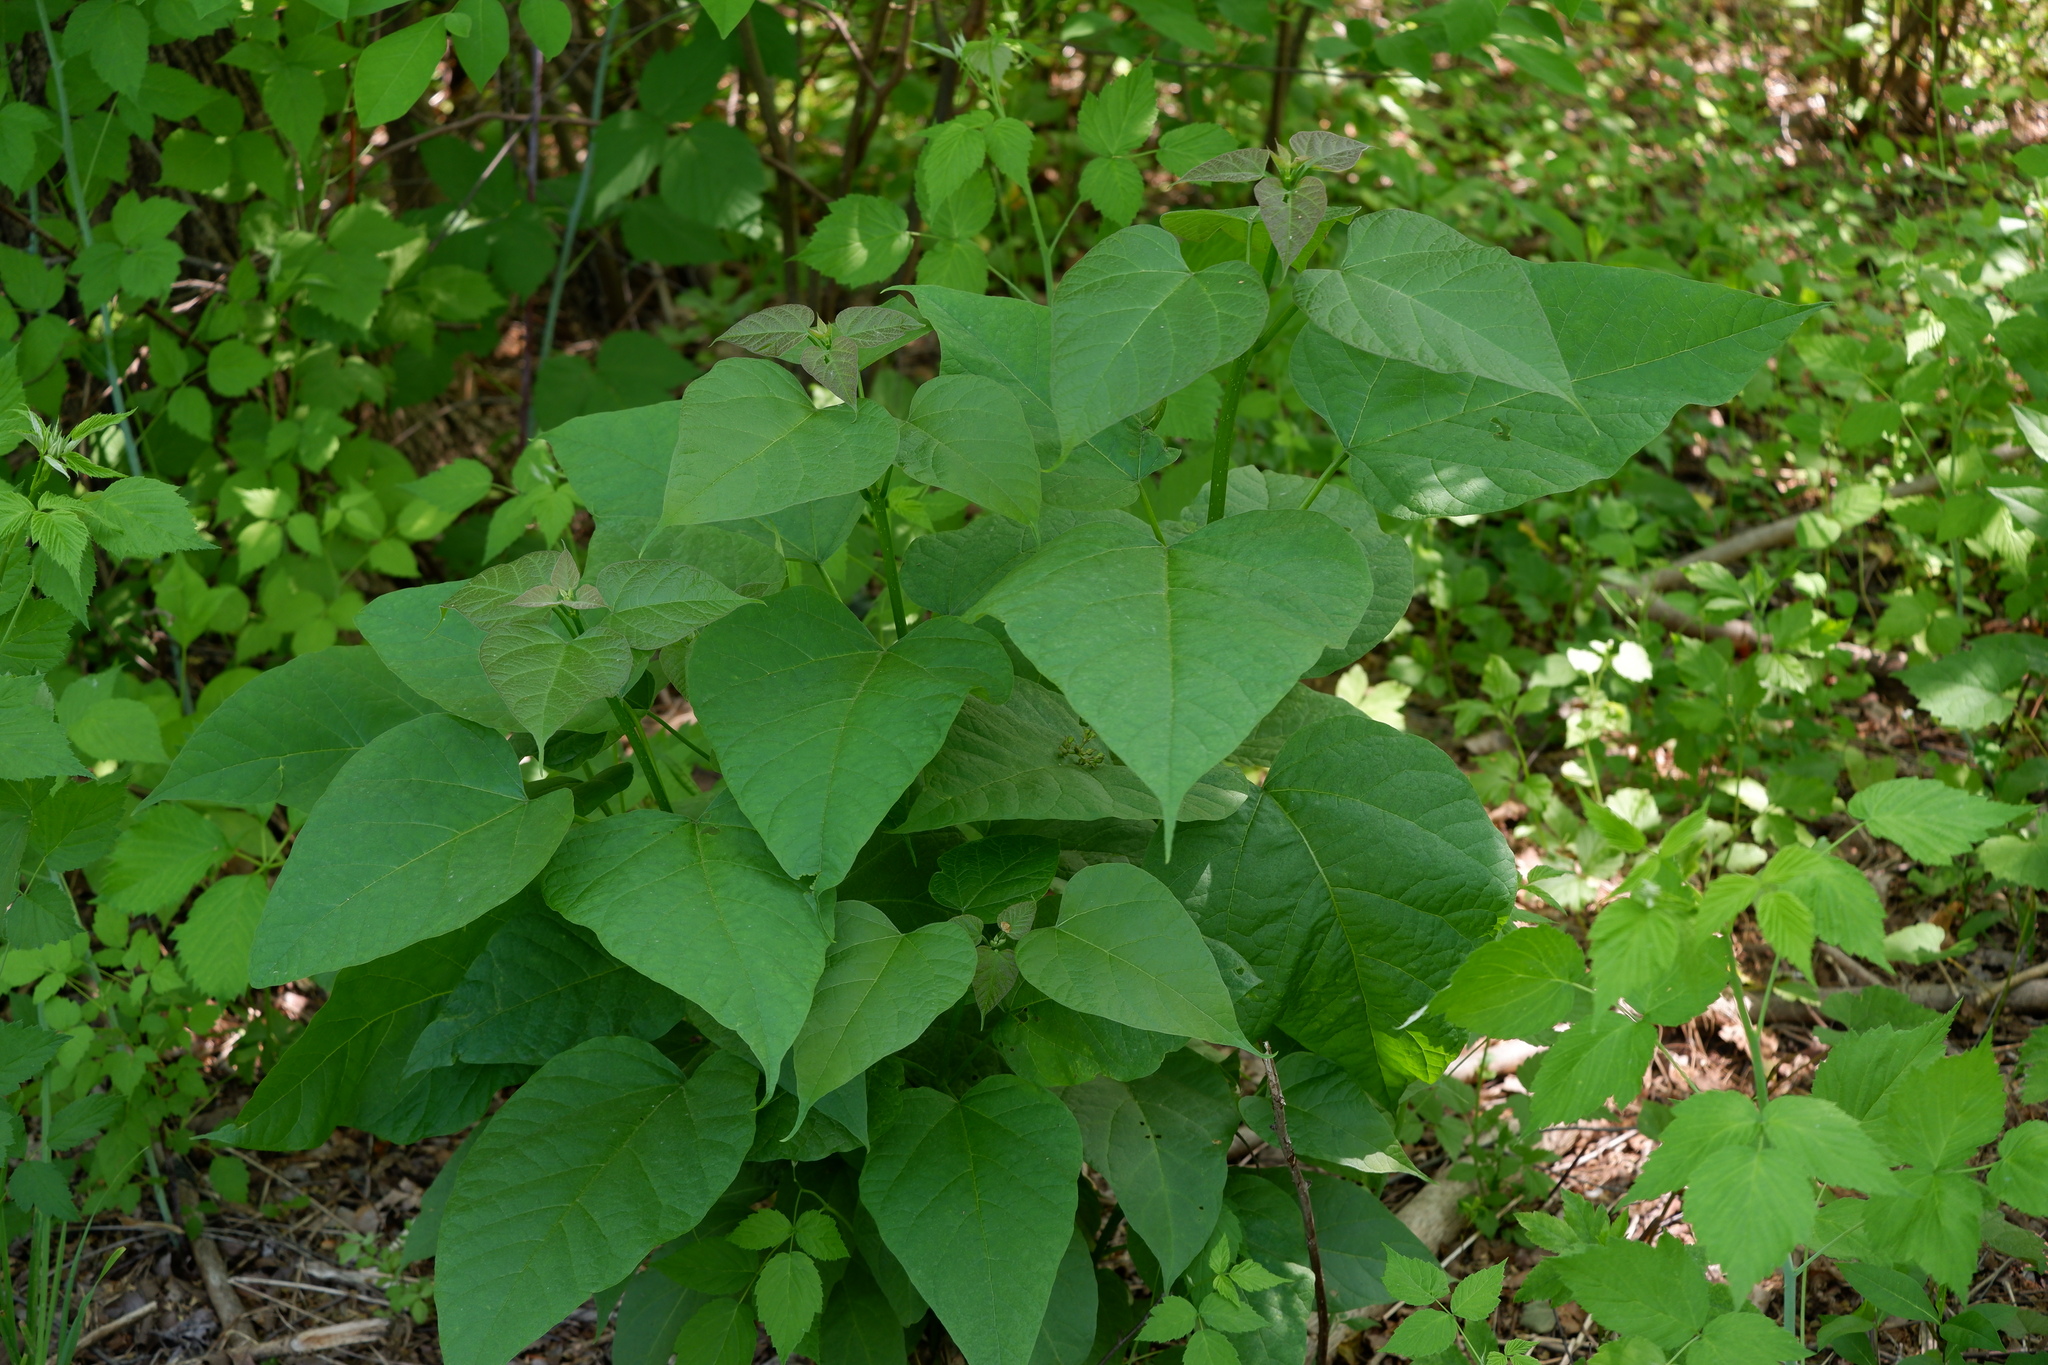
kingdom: Plantae
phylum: Tracheophyta
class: Magnoliopsida
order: Lamiales
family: Bignoniaceae
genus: Catalpa
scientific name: Catalpa speciosa
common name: Northern catalpa
